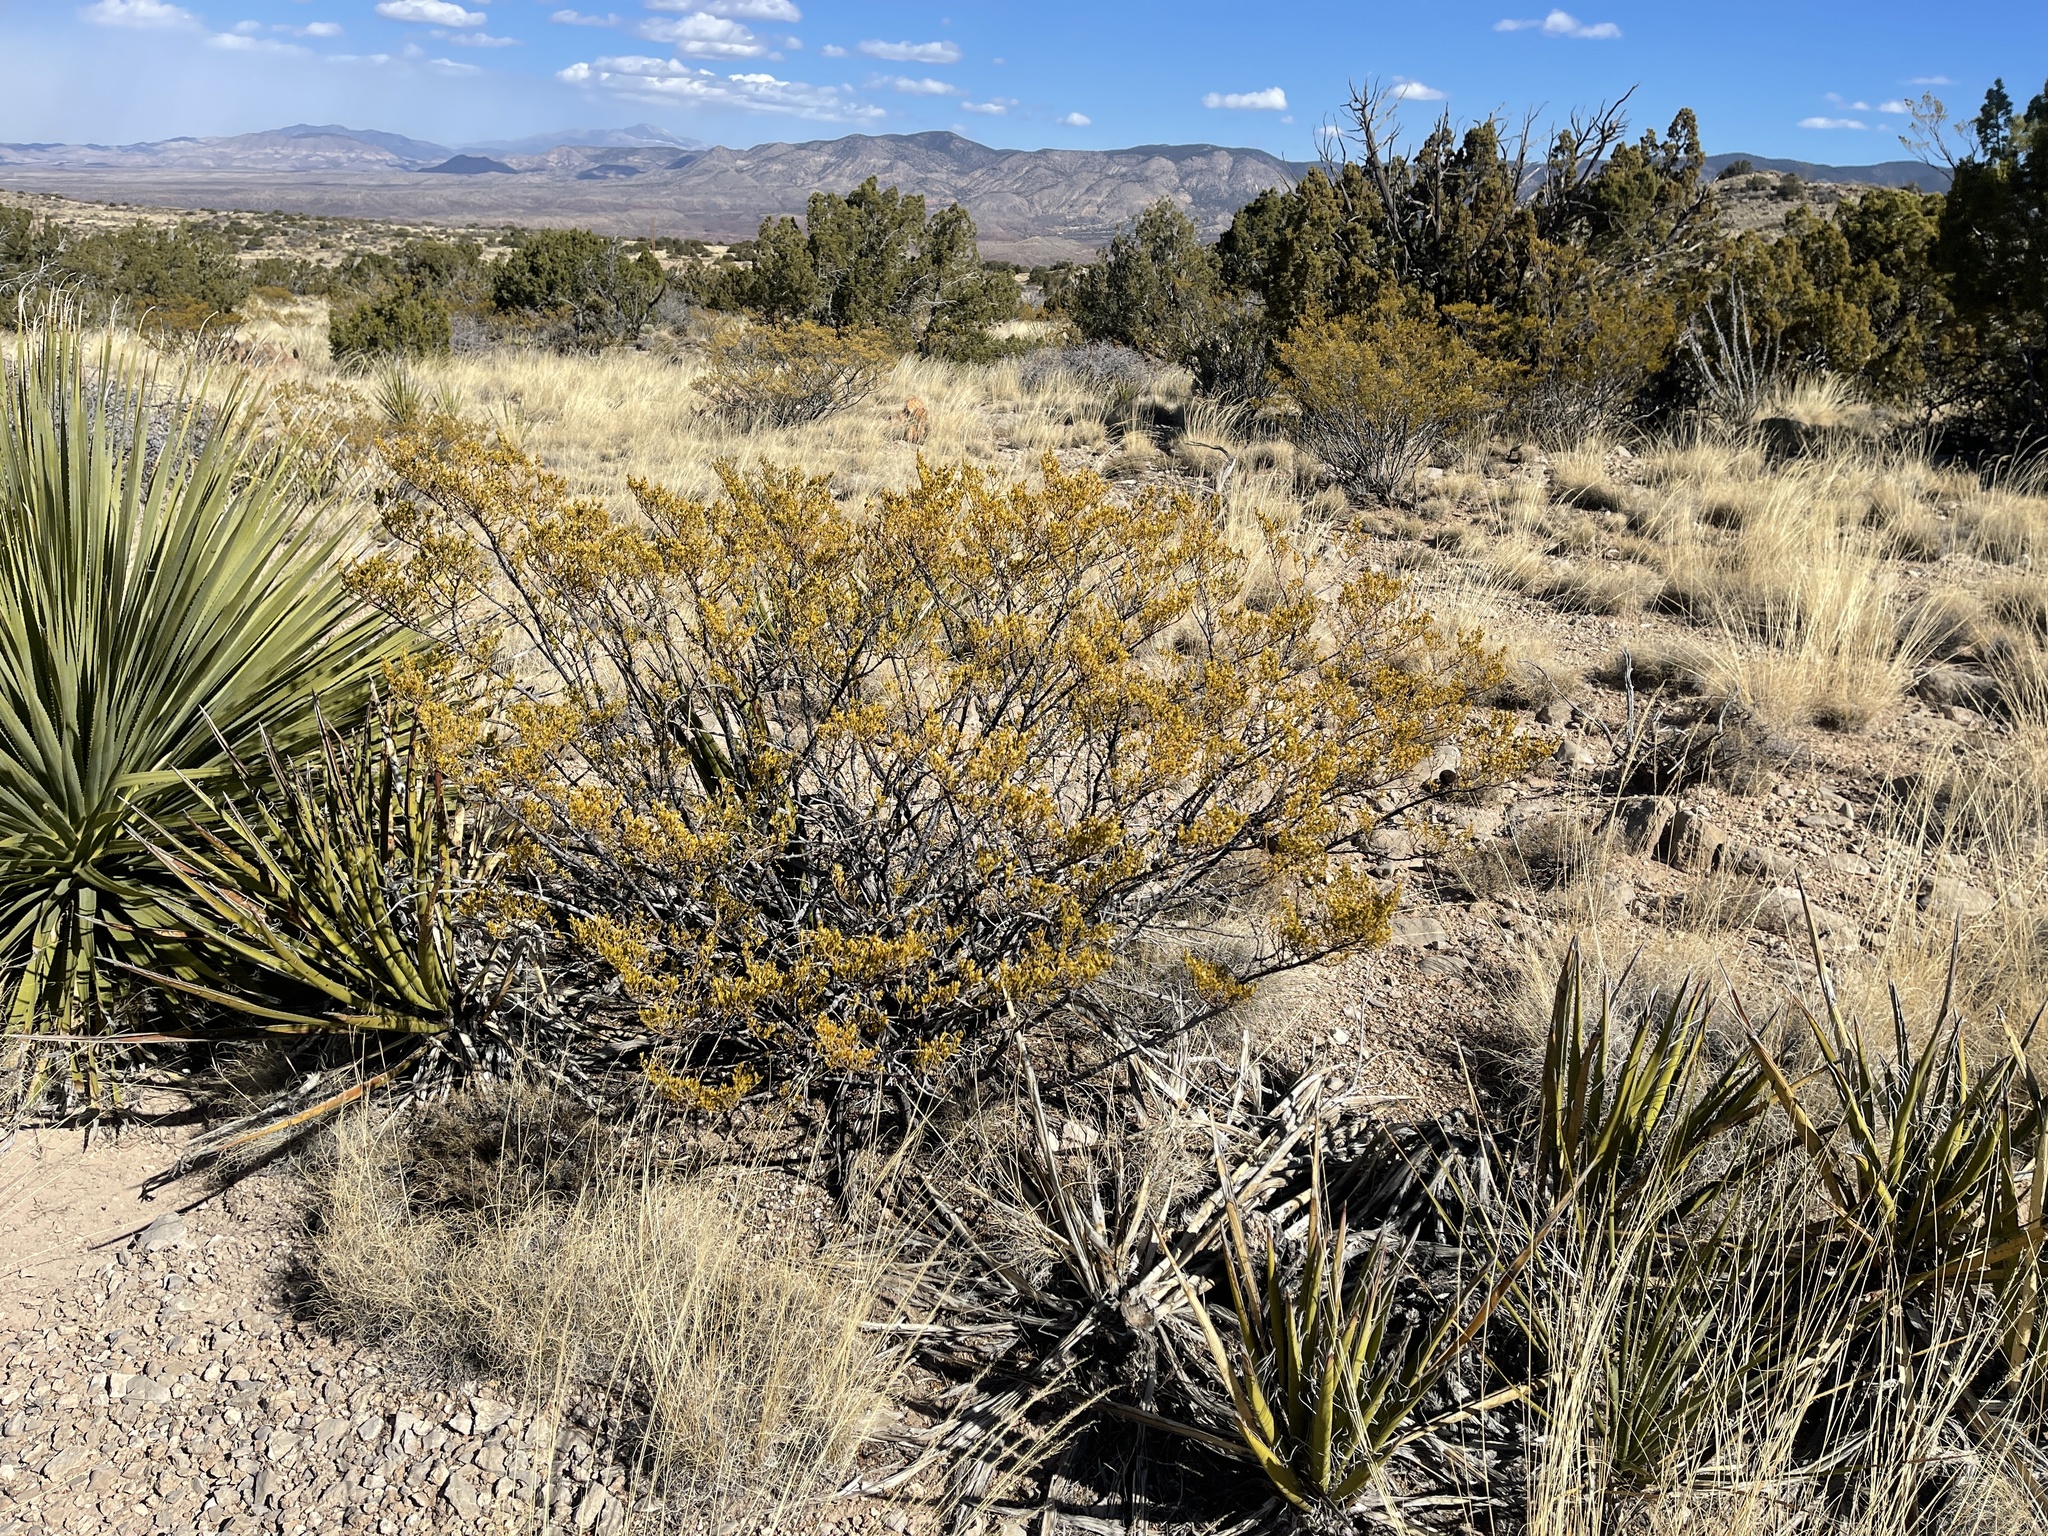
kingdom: Plantae
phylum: Tracheophyta
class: Magnoliopsida
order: Zygophyllales
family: Zygophyllaceae
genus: Larrea
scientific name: Larrea tridentata
